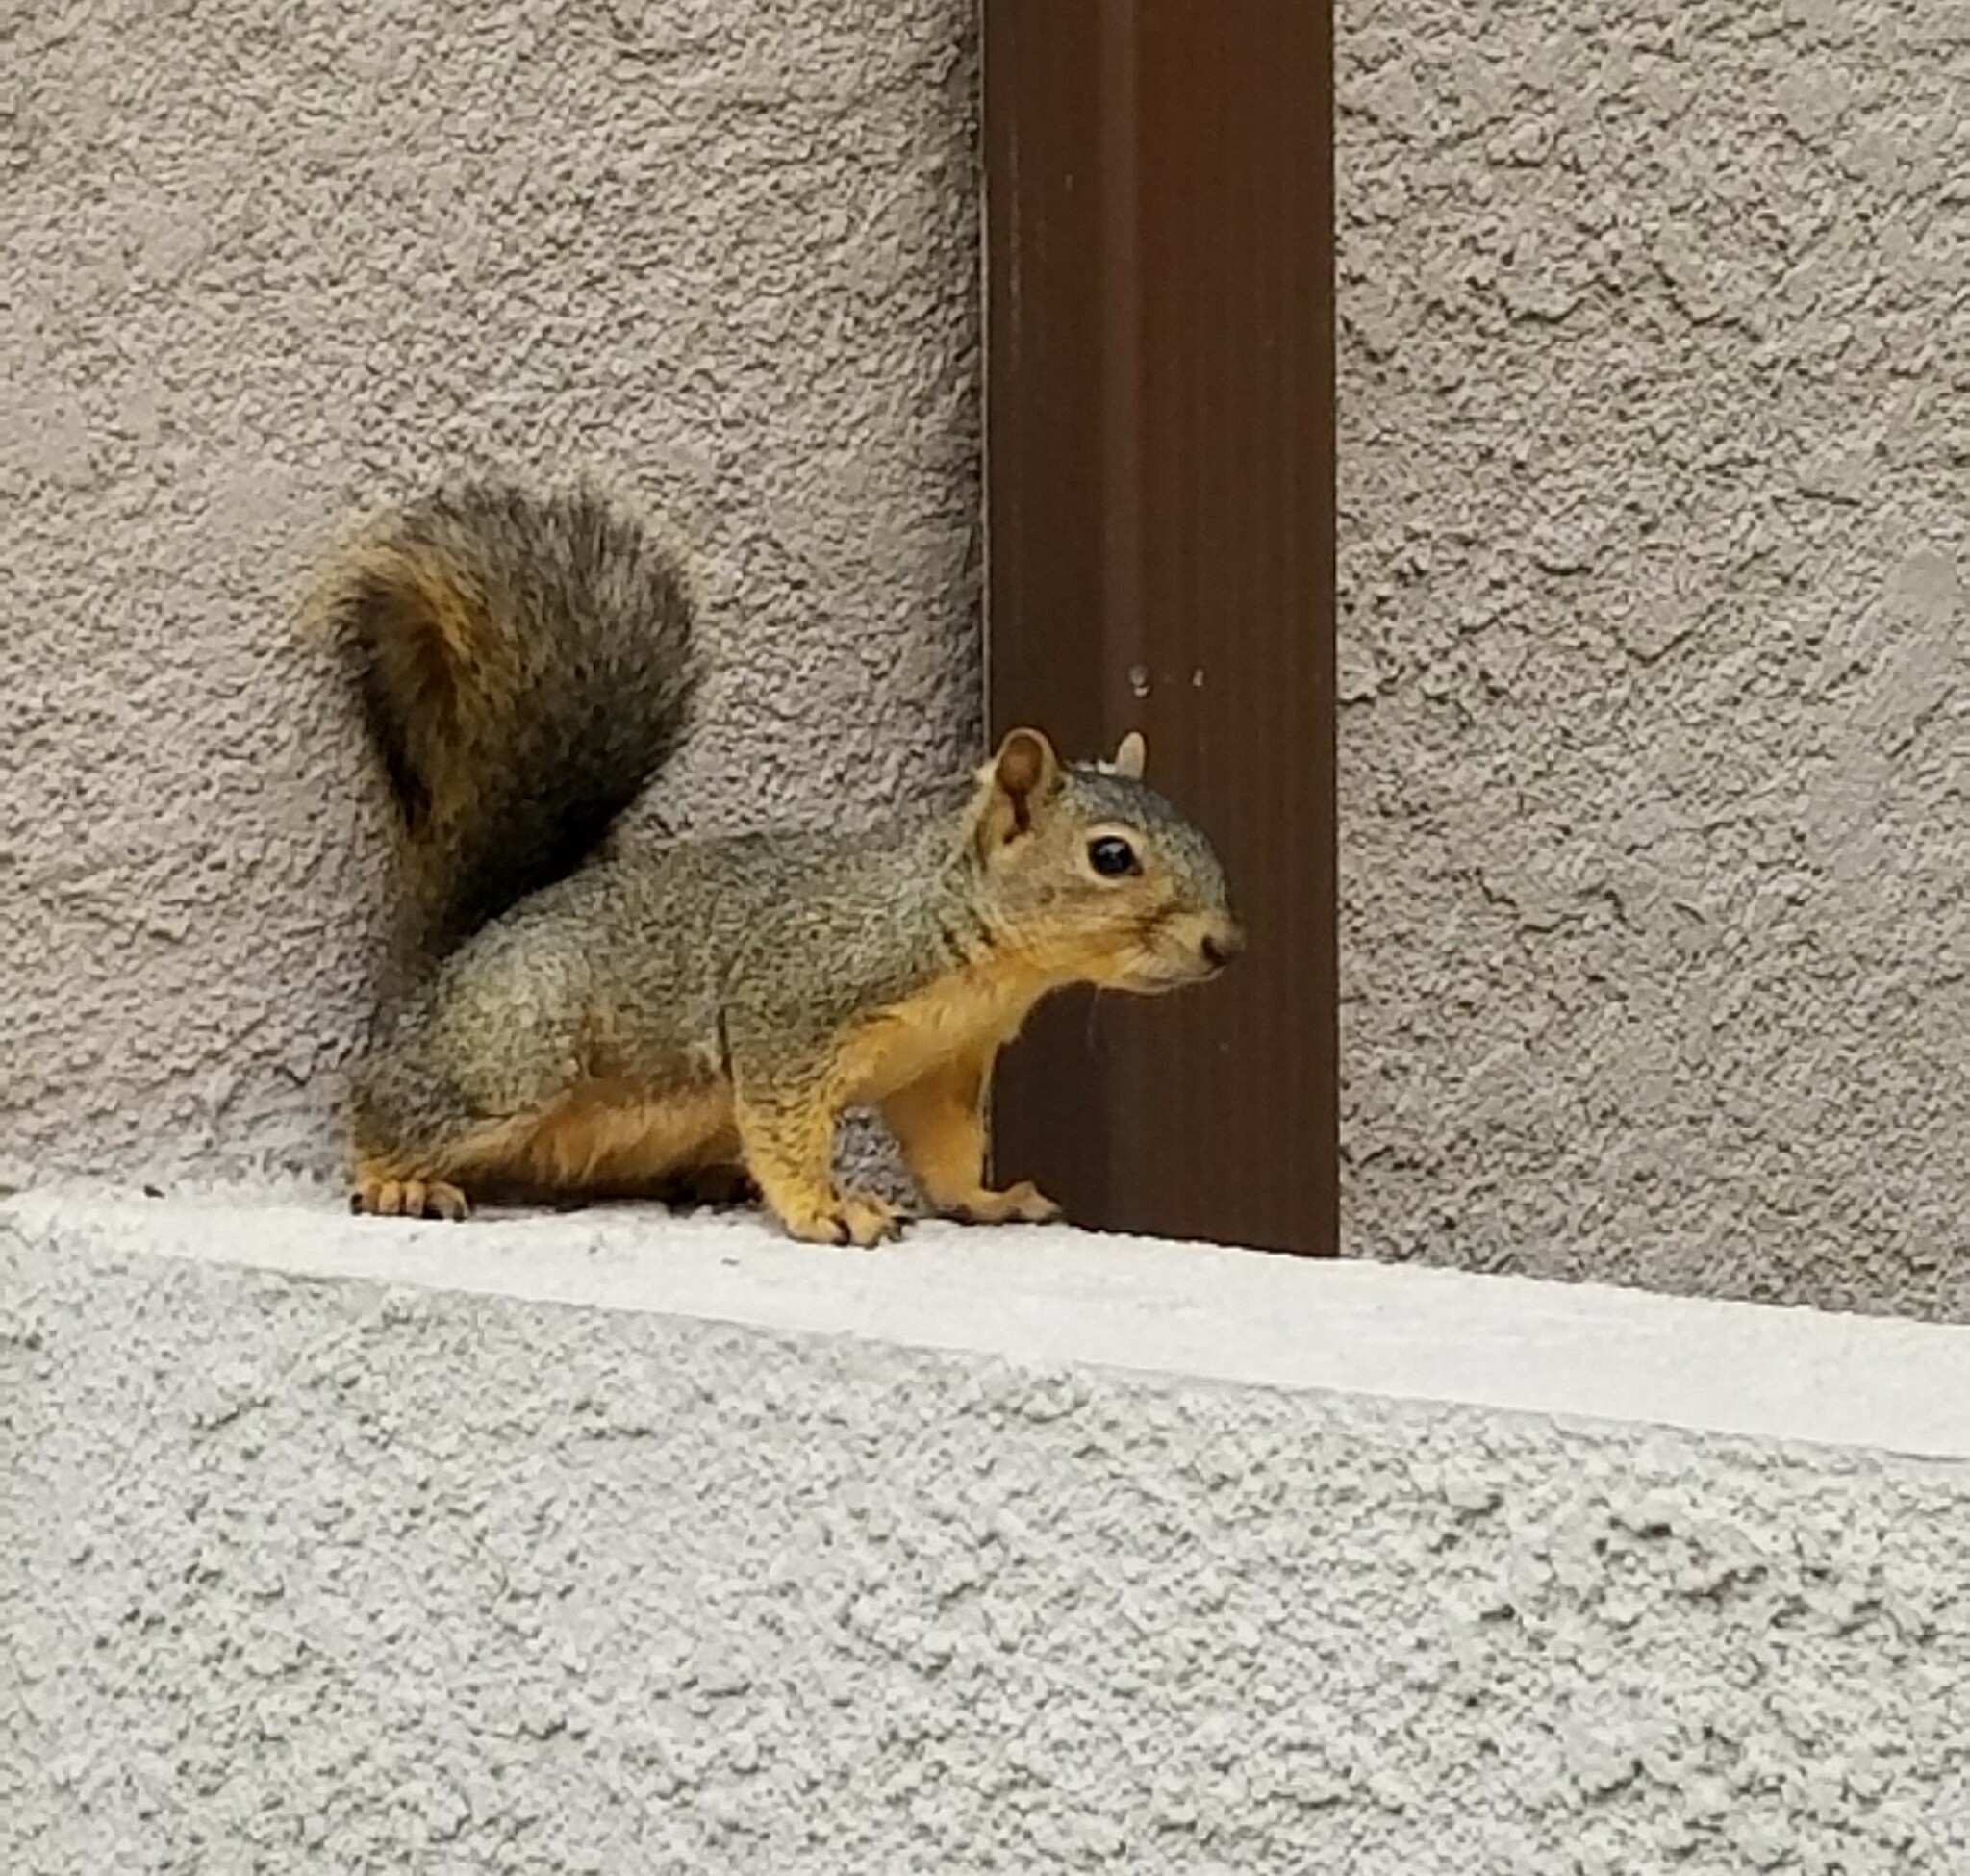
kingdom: Animalia
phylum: Chordata
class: Mammalia
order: Rodentia
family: Sciuridae
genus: Sciurus
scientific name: Sciurus niger
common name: Fox squirrel
